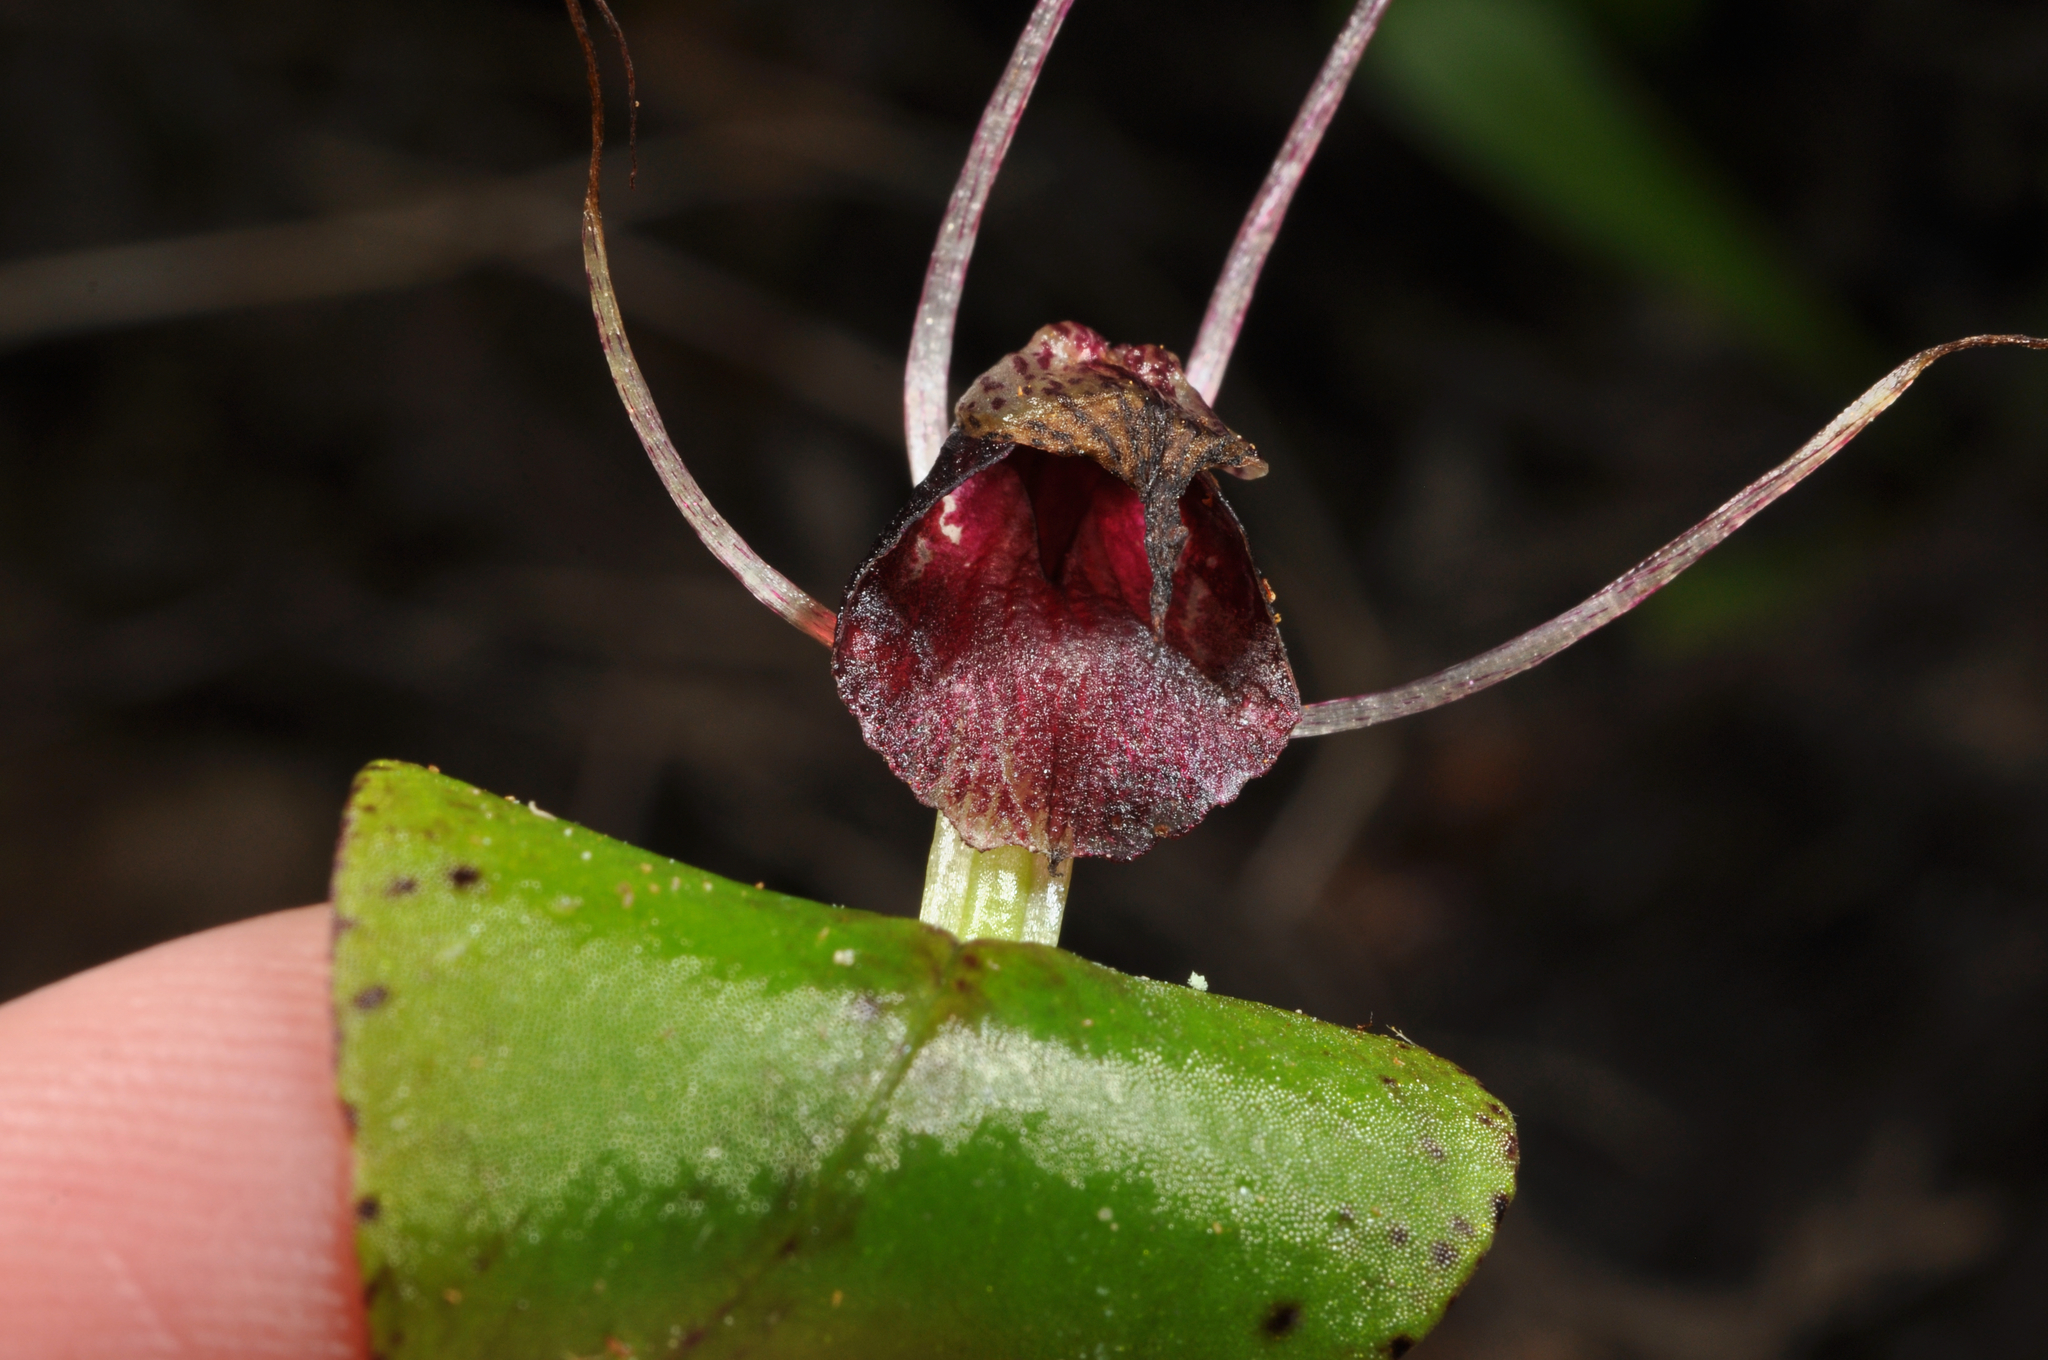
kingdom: Plantae
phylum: Tracheophyta
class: Liliopsida
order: Asparagales
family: Orchidaceae
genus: Corybas
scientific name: Corybas iridescens
